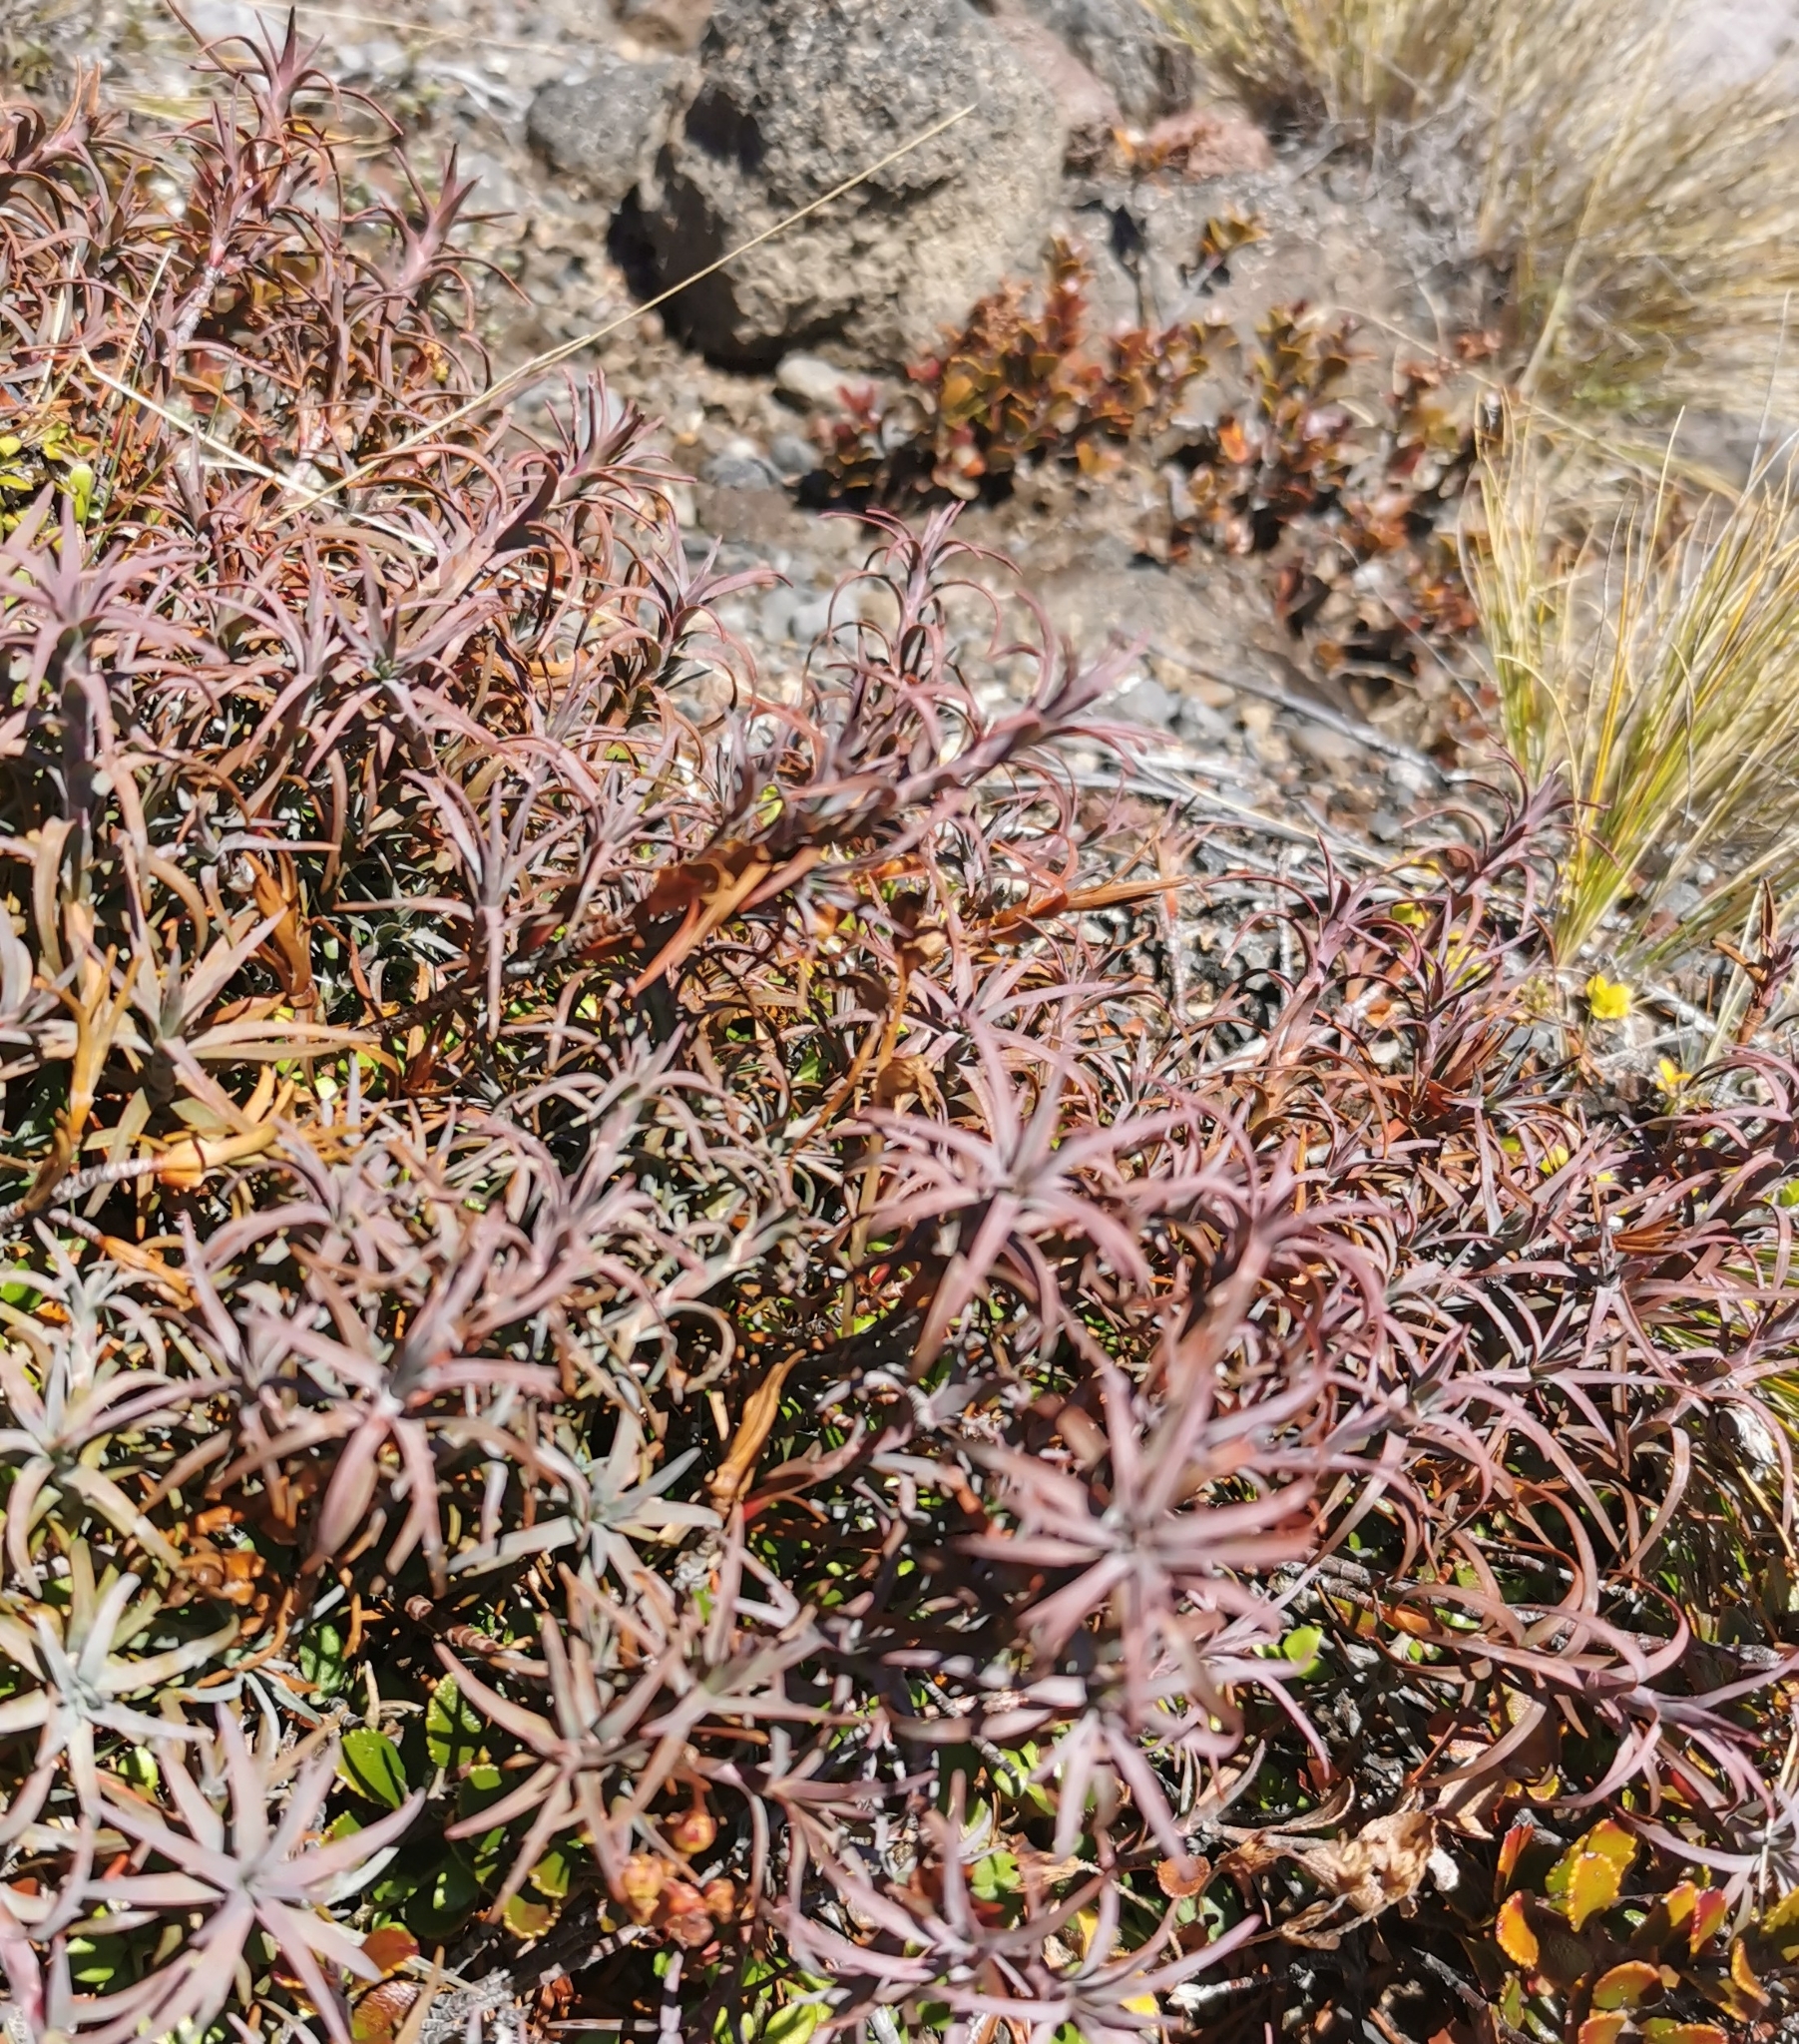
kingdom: Plantae
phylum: Tracheophyta
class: Magnoliopsida
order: Ericales
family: Ericaceae
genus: Dracophyllum
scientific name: Dracophyllum recurvum
